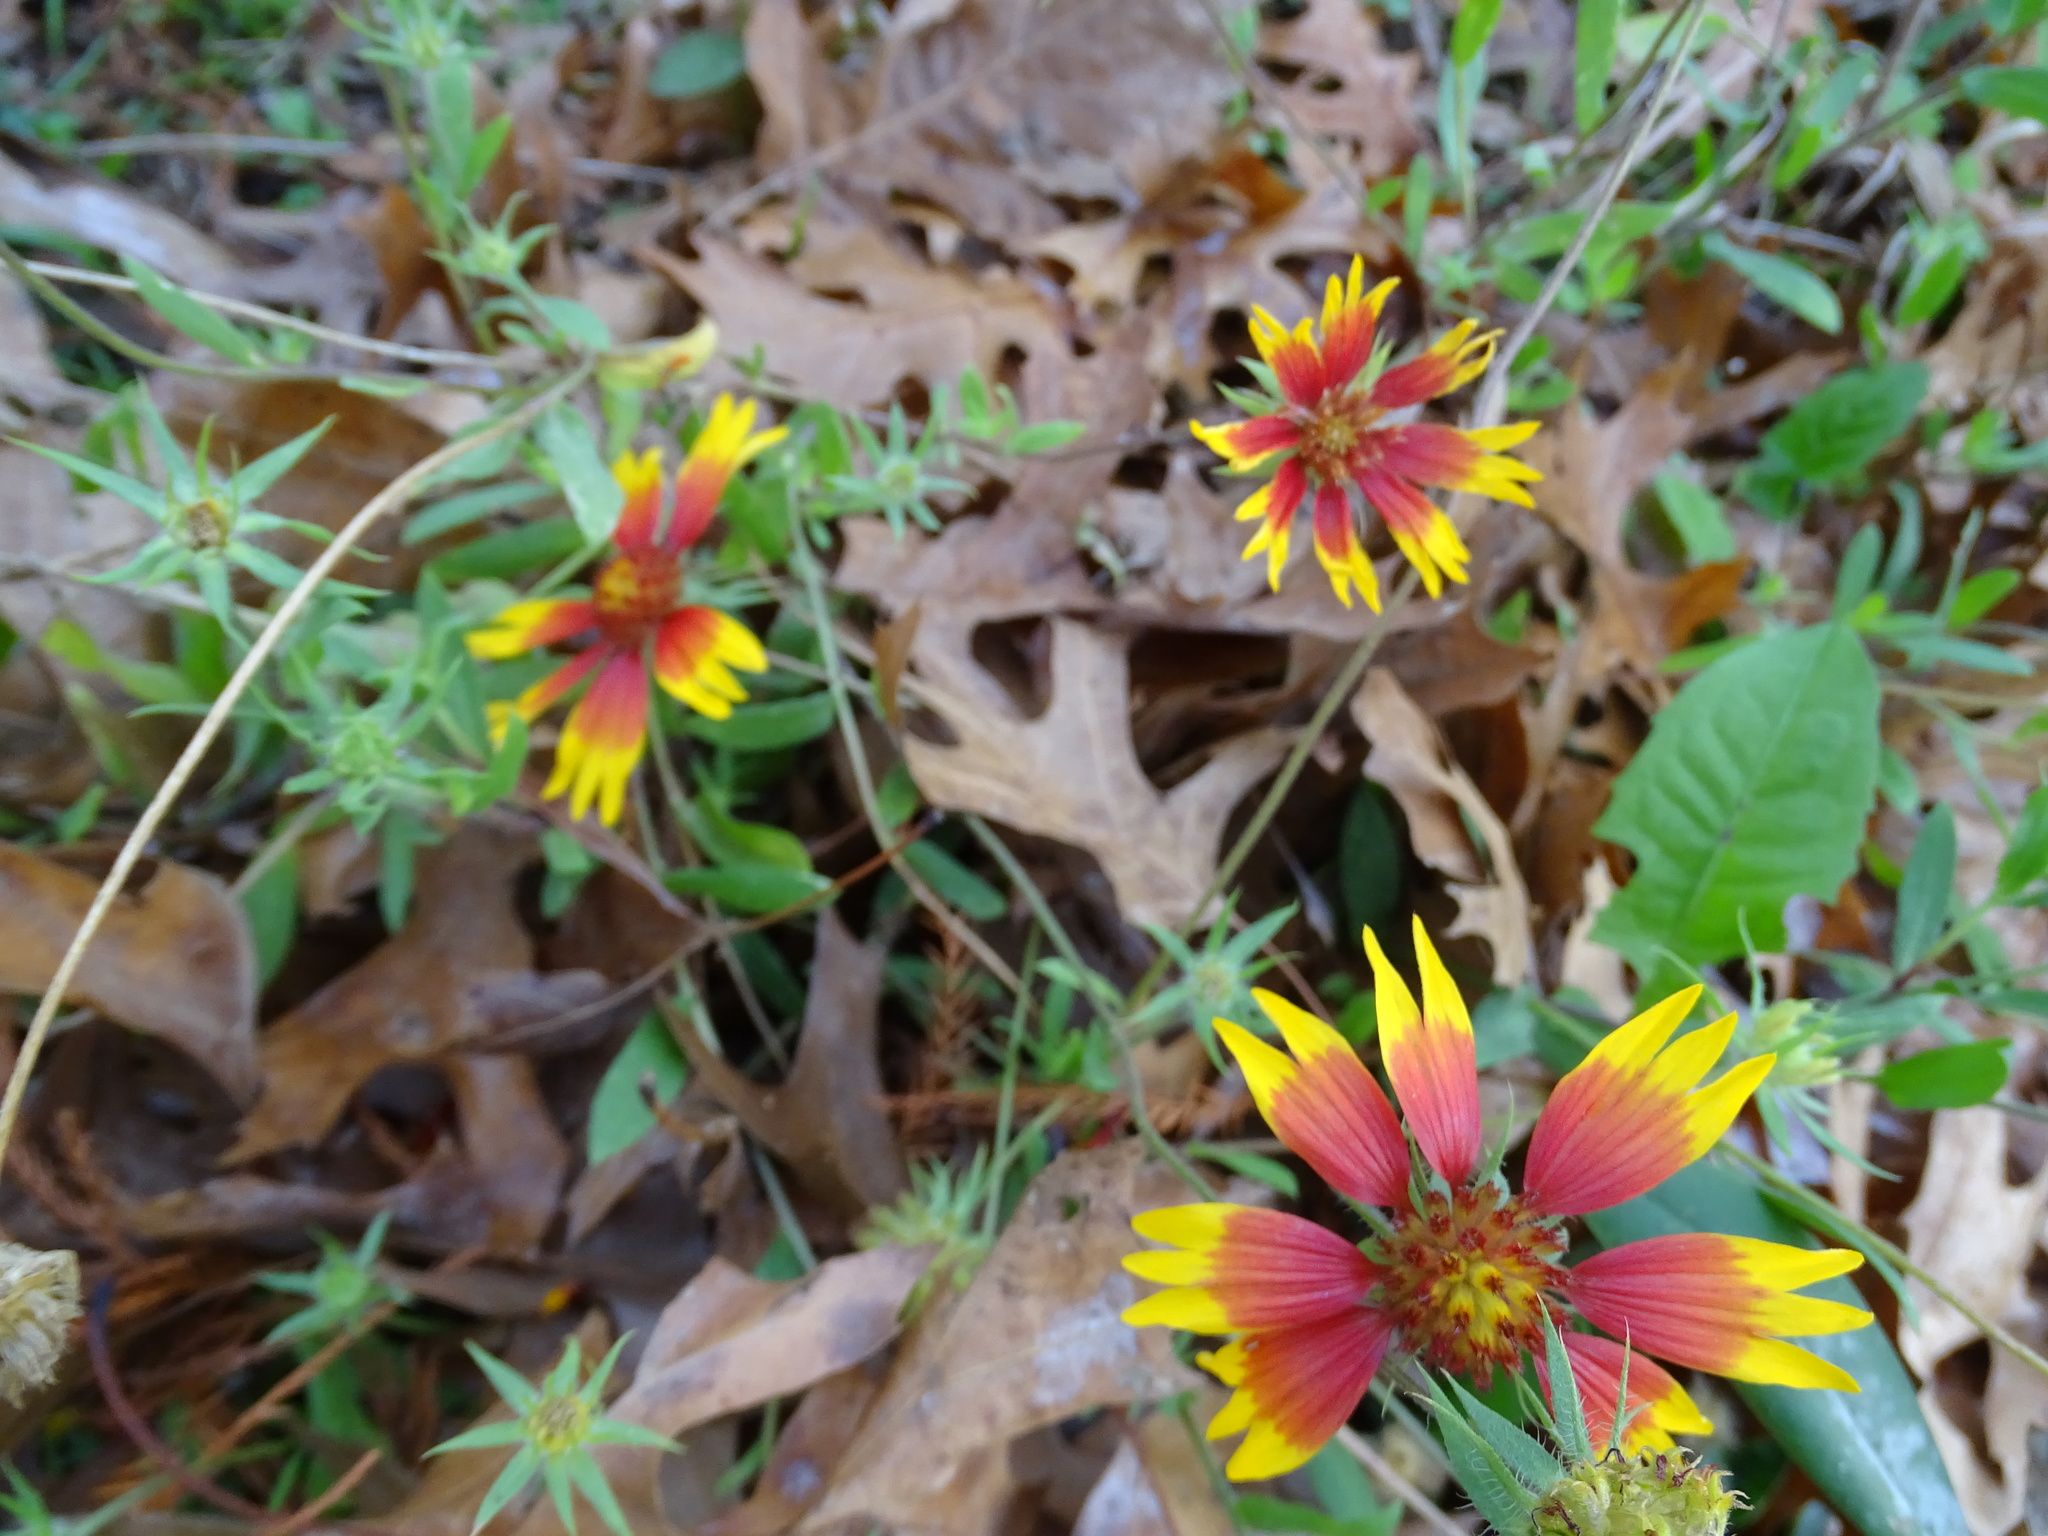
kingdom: Plantae
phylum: Tracheophyta
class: Magnoliopsida
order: Asterales
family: Asteraceae
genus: Gaillardia
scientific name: Gaillardia pulchella
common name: Firewheel
